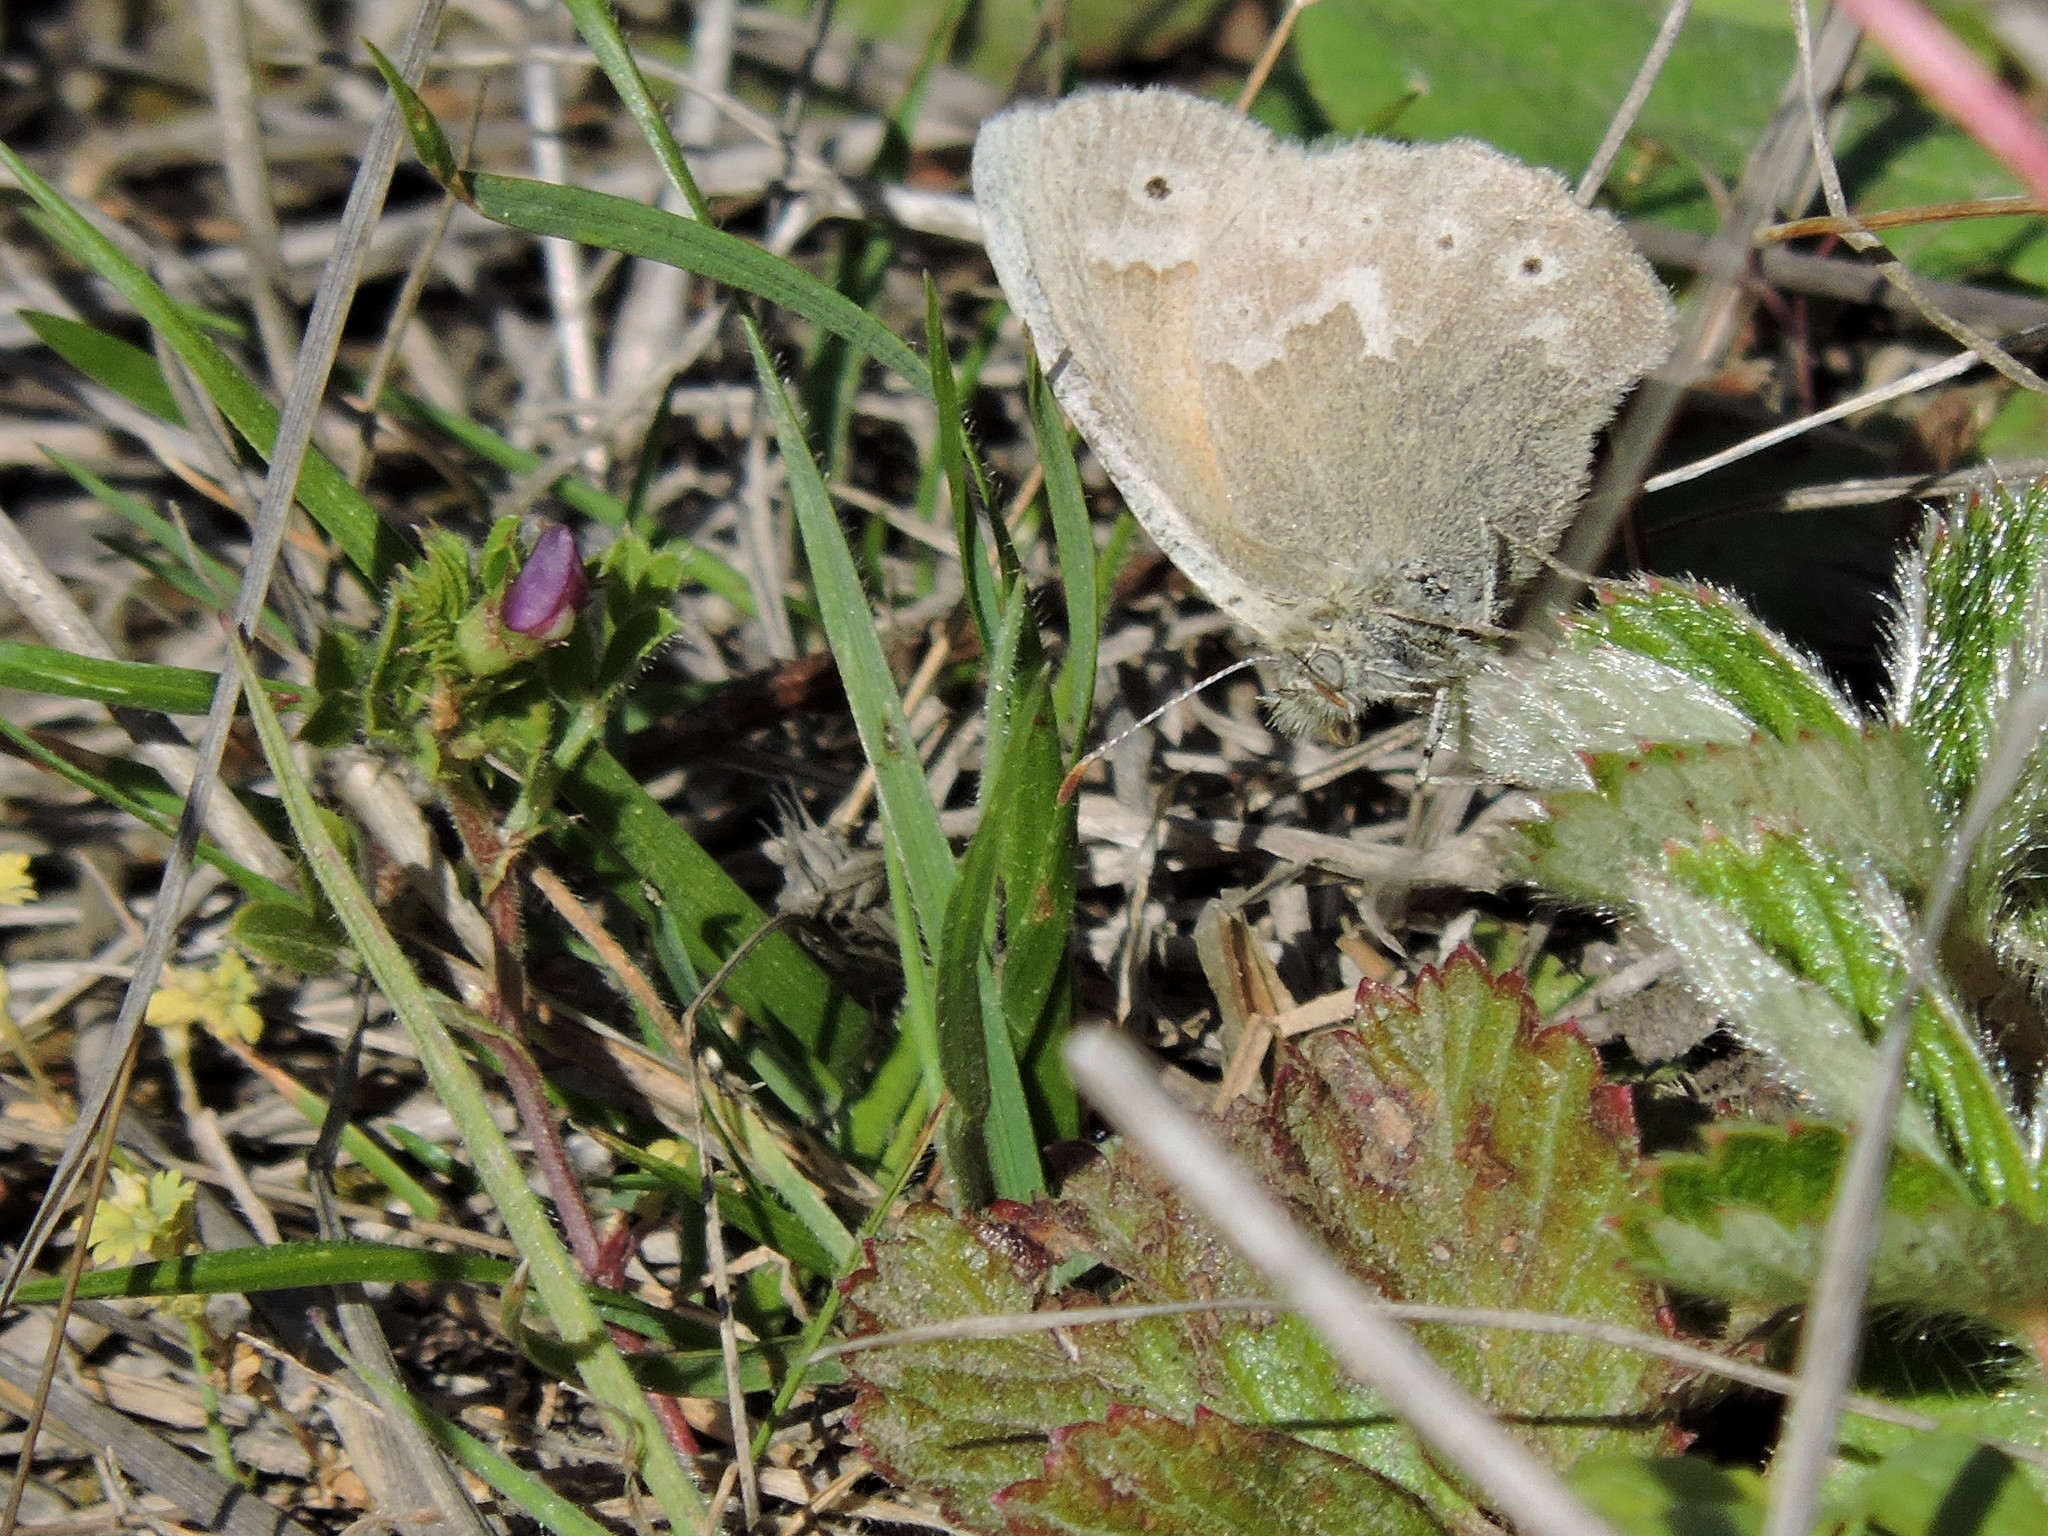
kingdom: Animalia
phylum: Arthropoda
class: Insecta
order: Lepidoptera
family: Nymphalidae
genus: Coenonympha
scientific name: Coenonympha california
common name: Common ringlet
